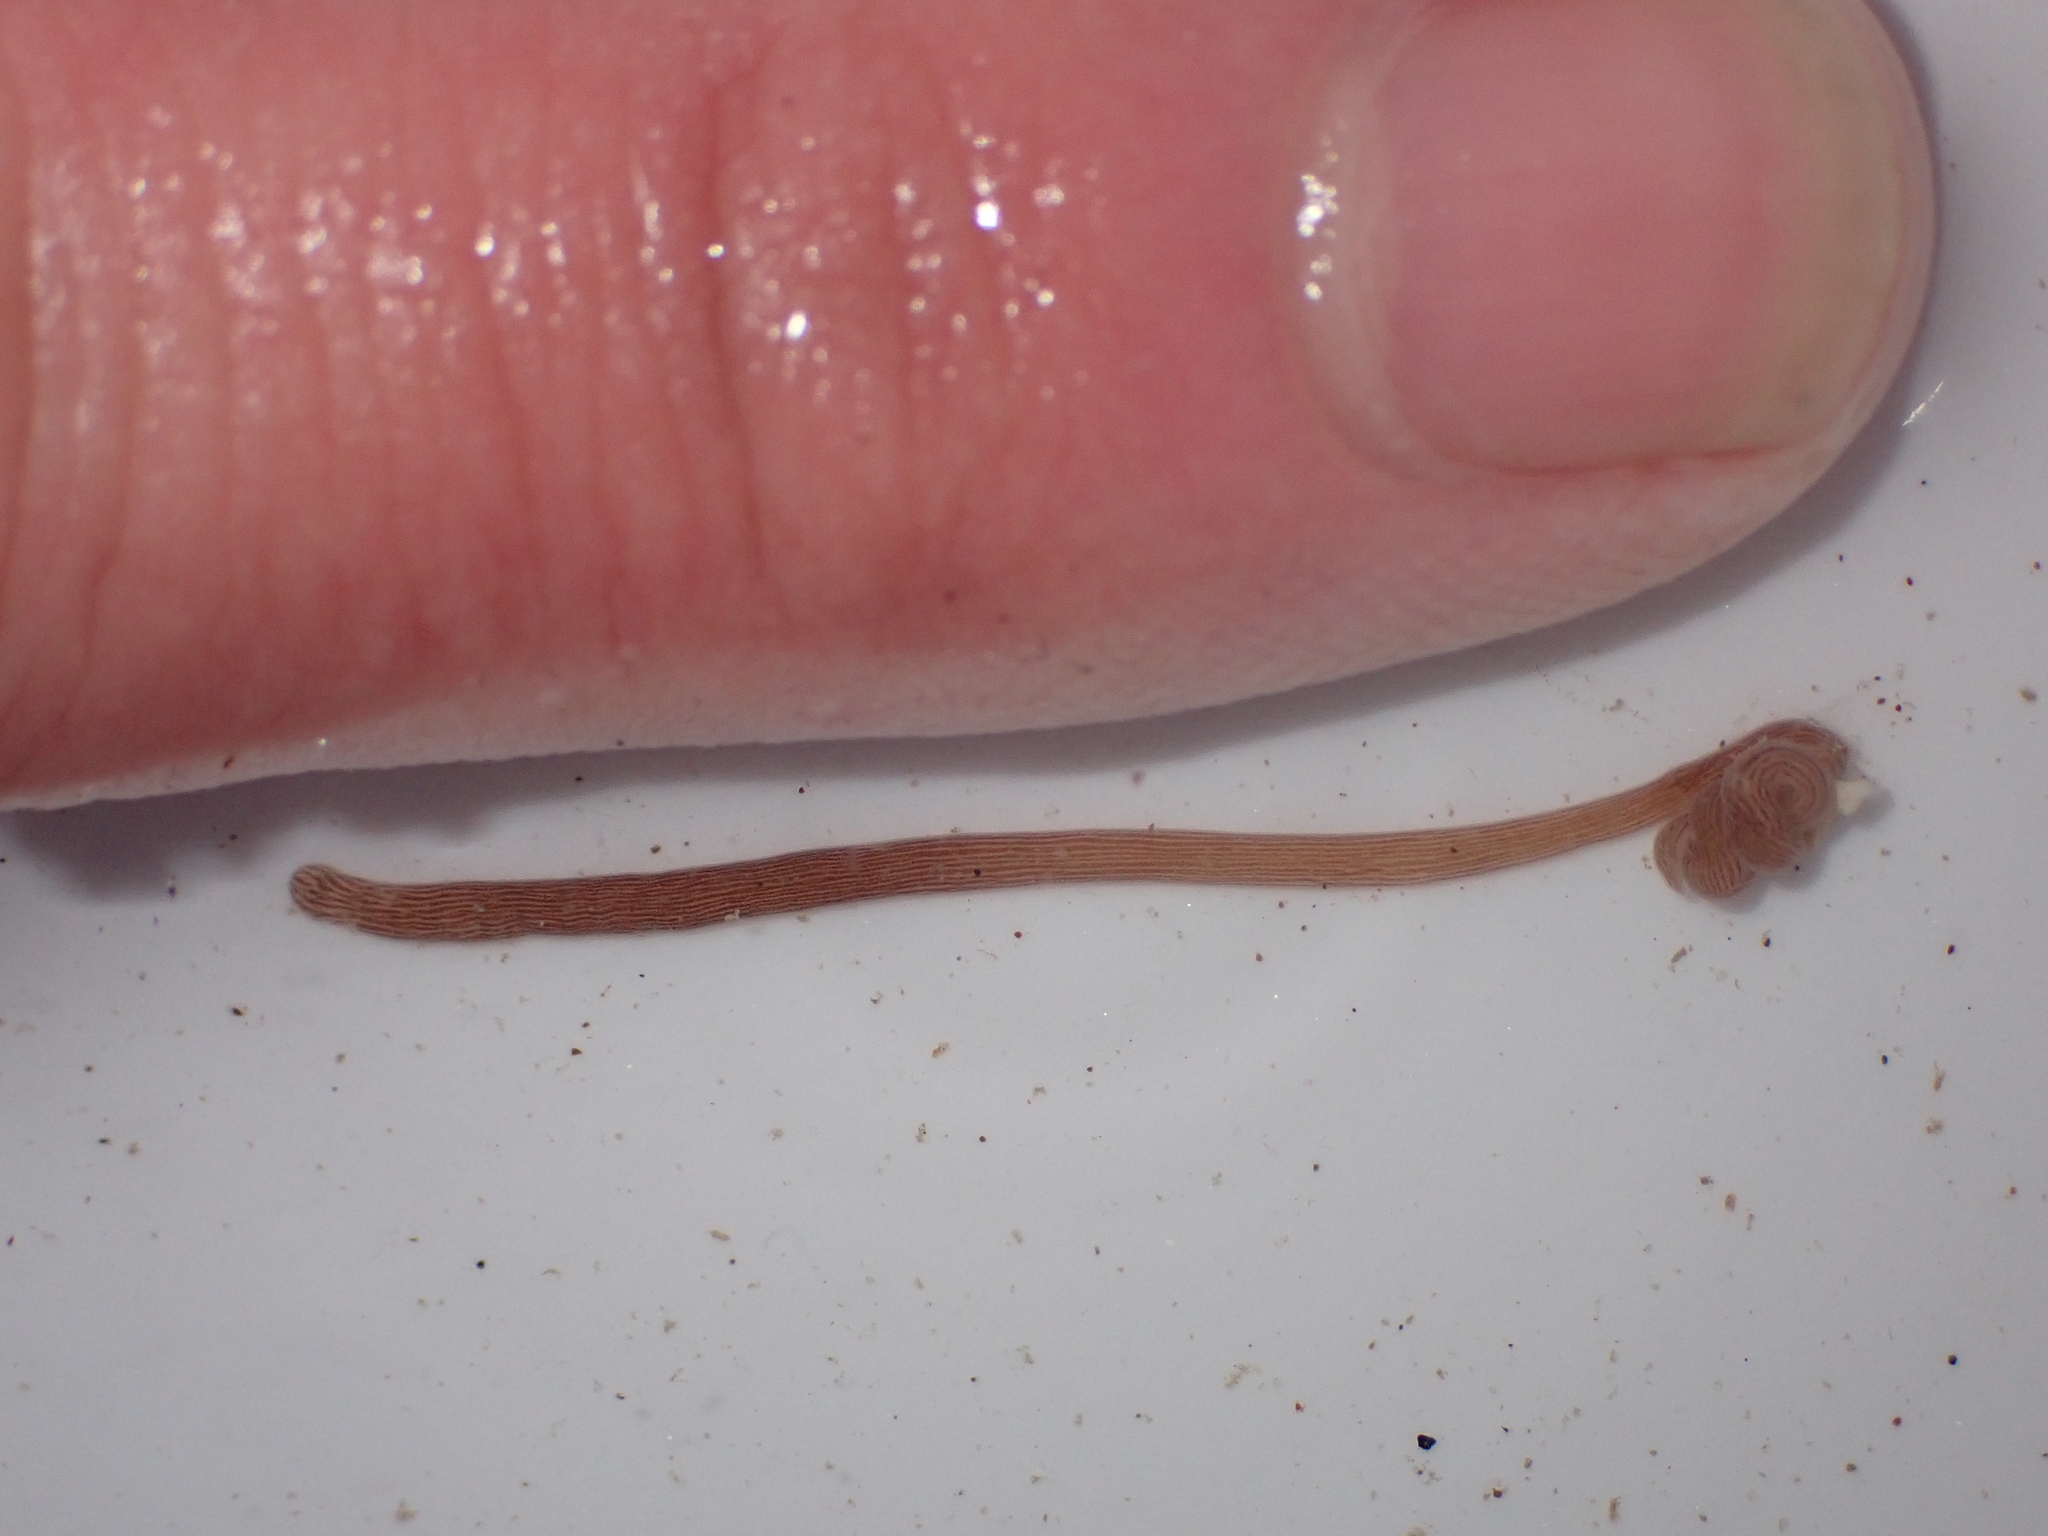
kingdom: Animalia
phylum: Nemertea
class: Pilidiophora
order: Heteronemertea
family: Valenciniidae
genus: Baseodiscus
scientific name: Baseodiscus delineatus
